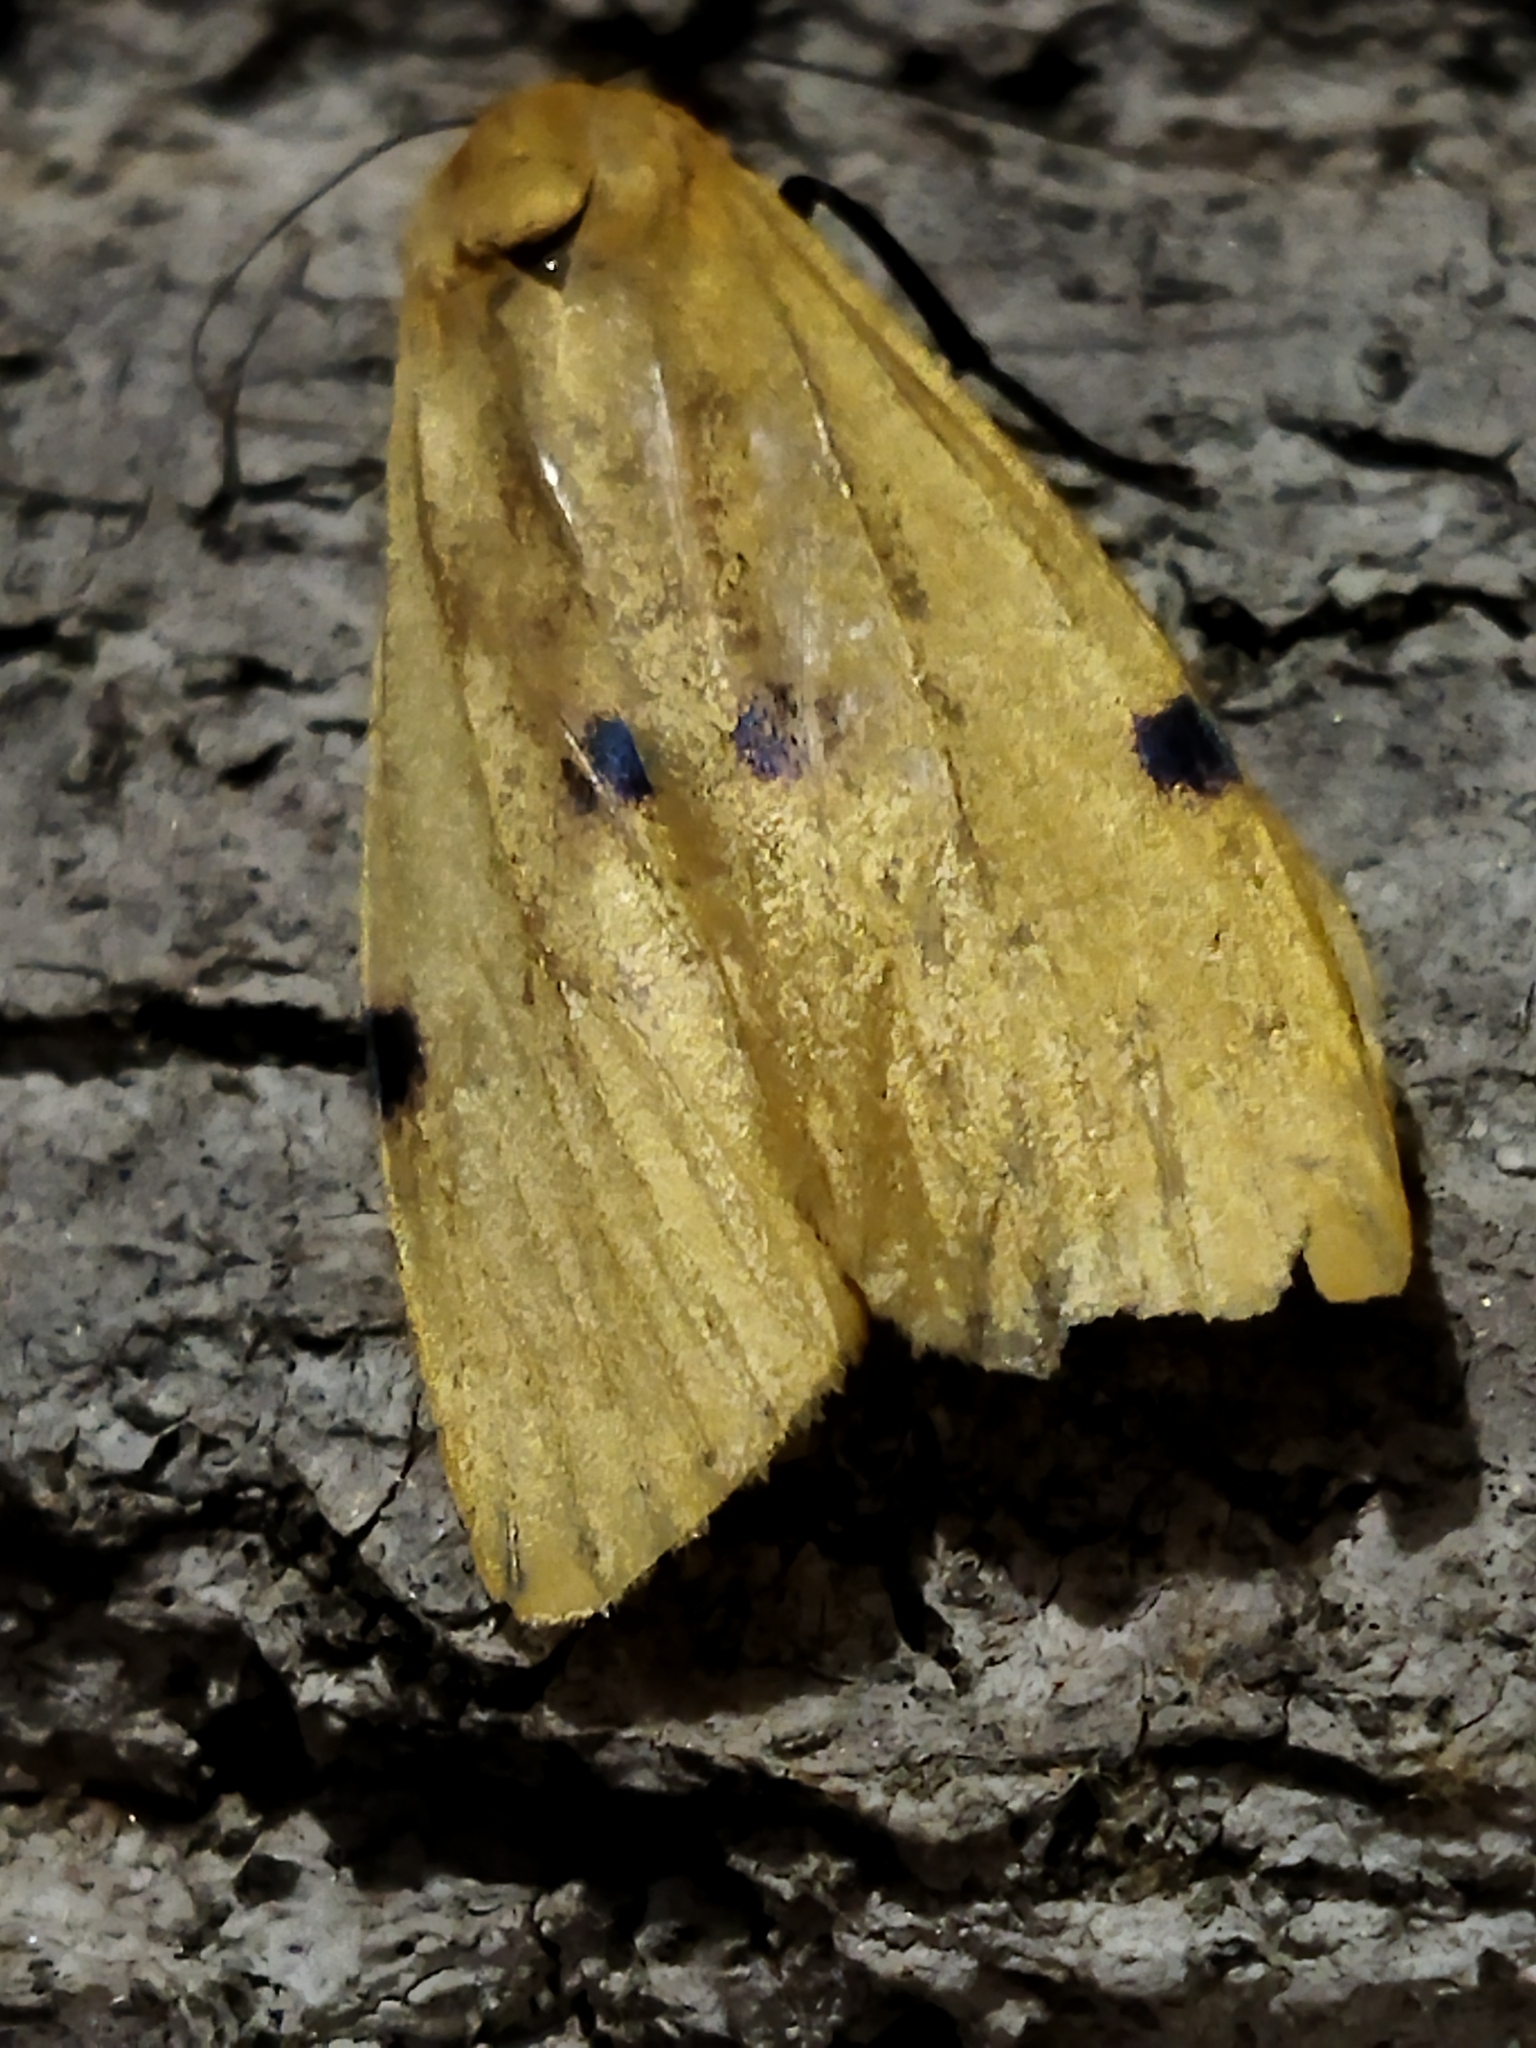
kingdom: Animalia
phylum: Arthropoda
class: Insecta
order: Lepidoptera
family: Erebidae
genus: Lithosia
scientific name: Lithosia quadra
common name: Four-spotted footman
